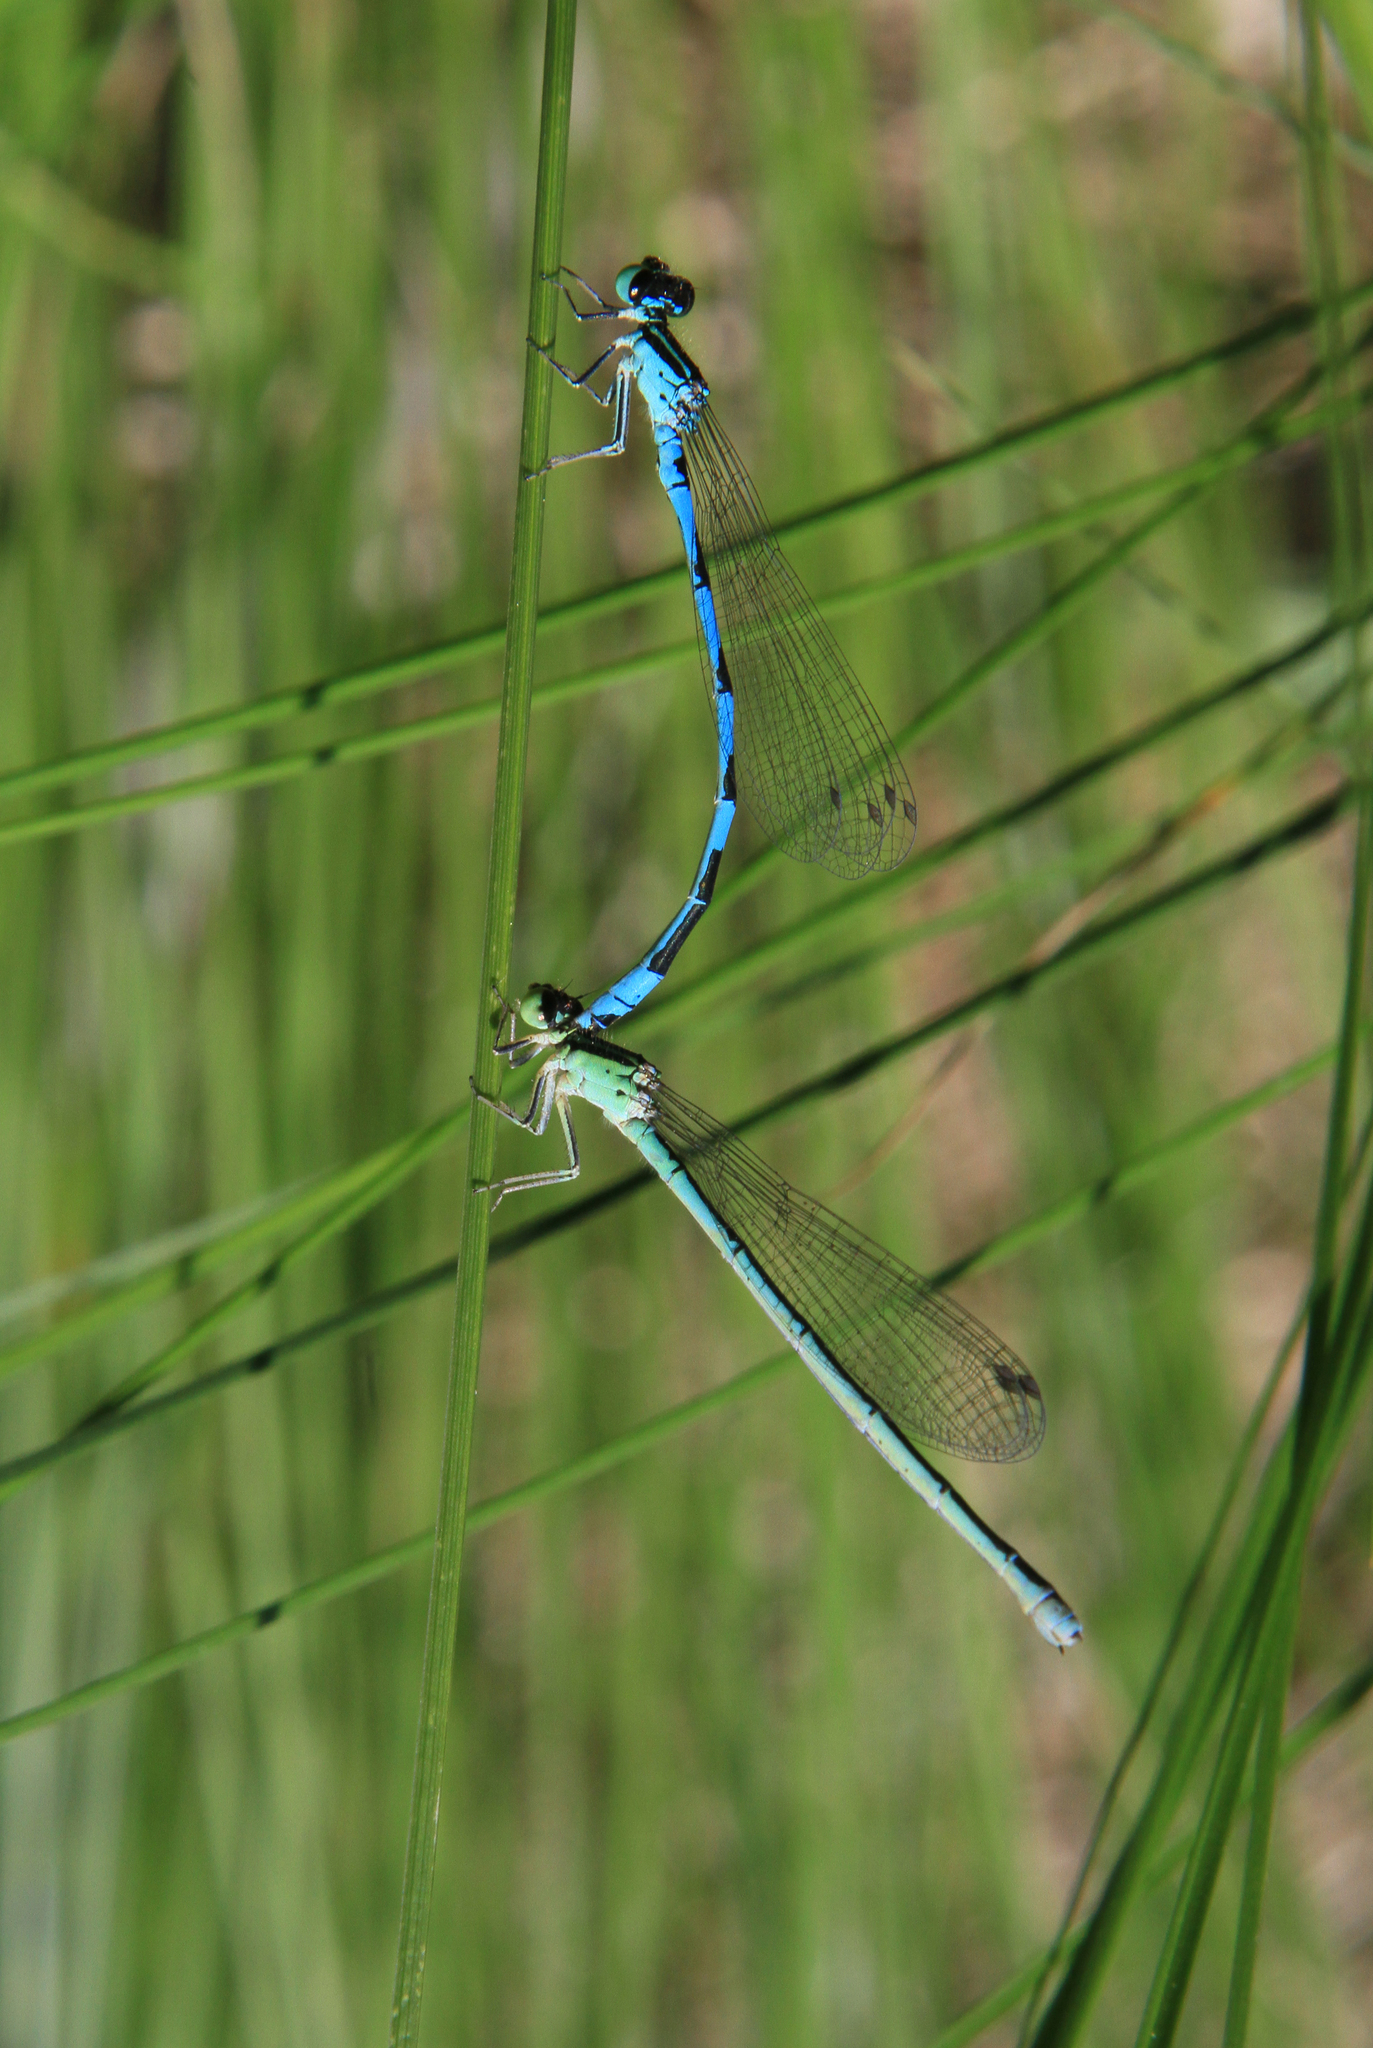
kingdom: Animalia
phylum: Arthropoda
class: Insecta
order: Odonata
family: Coenagrionidae
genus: Coenagrion
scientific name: Coenagrion ecornutum
